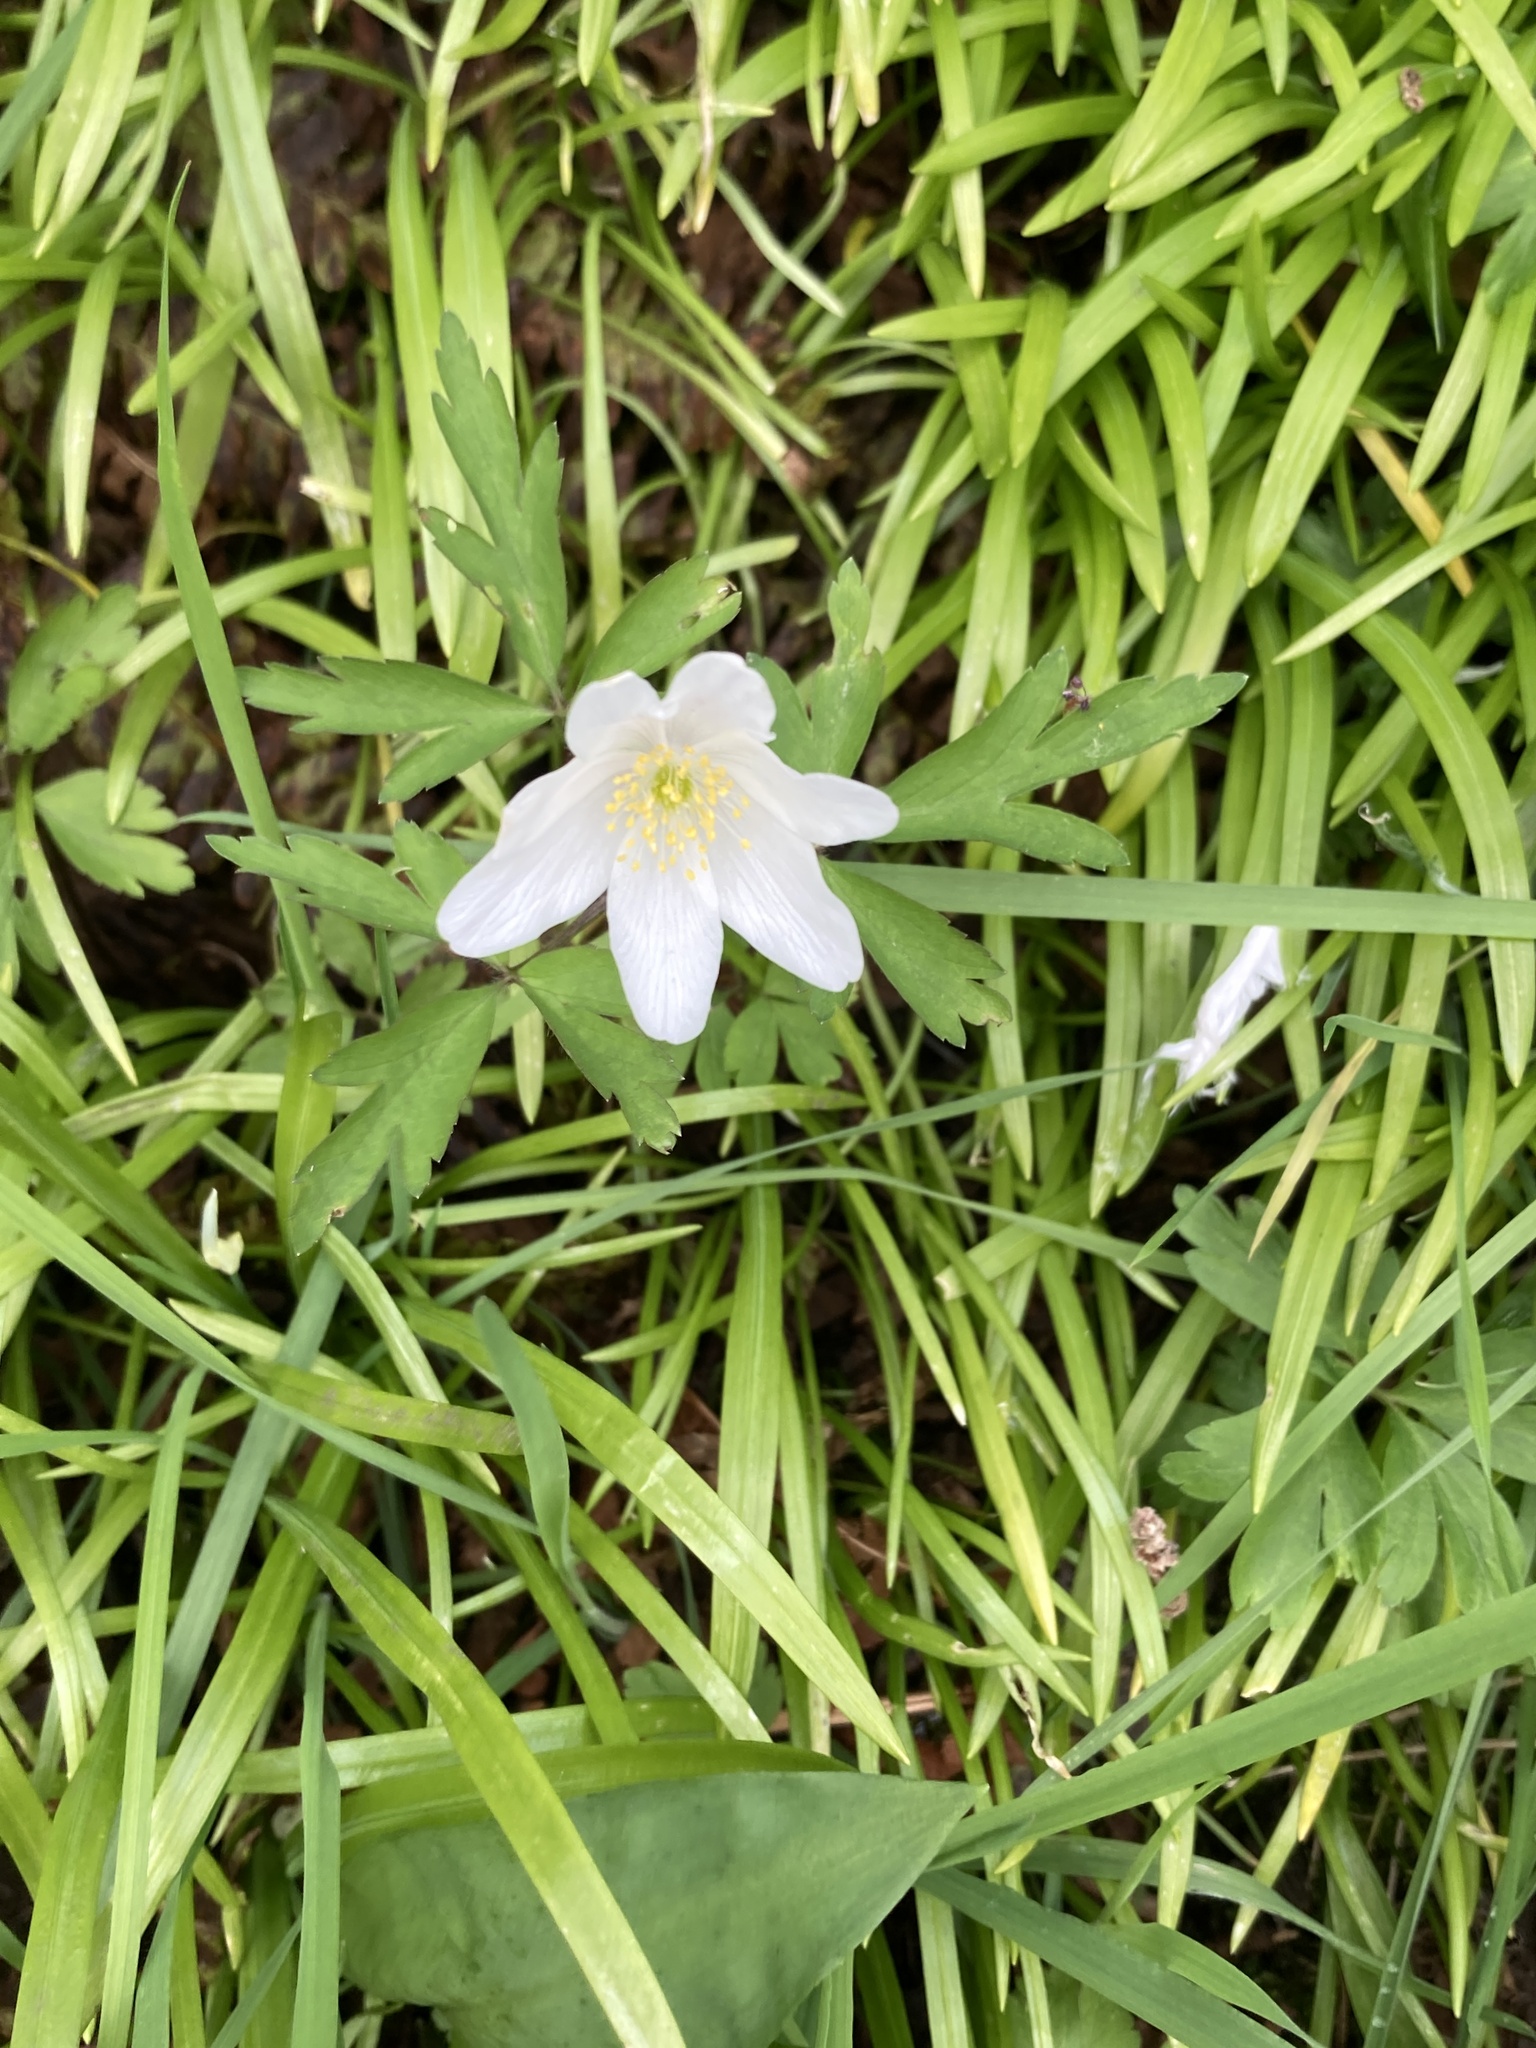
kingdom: Plantae
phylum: Tracheophyta
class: Magnoliopsida
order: Ranunculales
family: Ranunculaceae
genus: Anemone
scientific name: Anemone nemorosa
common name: Wood anemone
